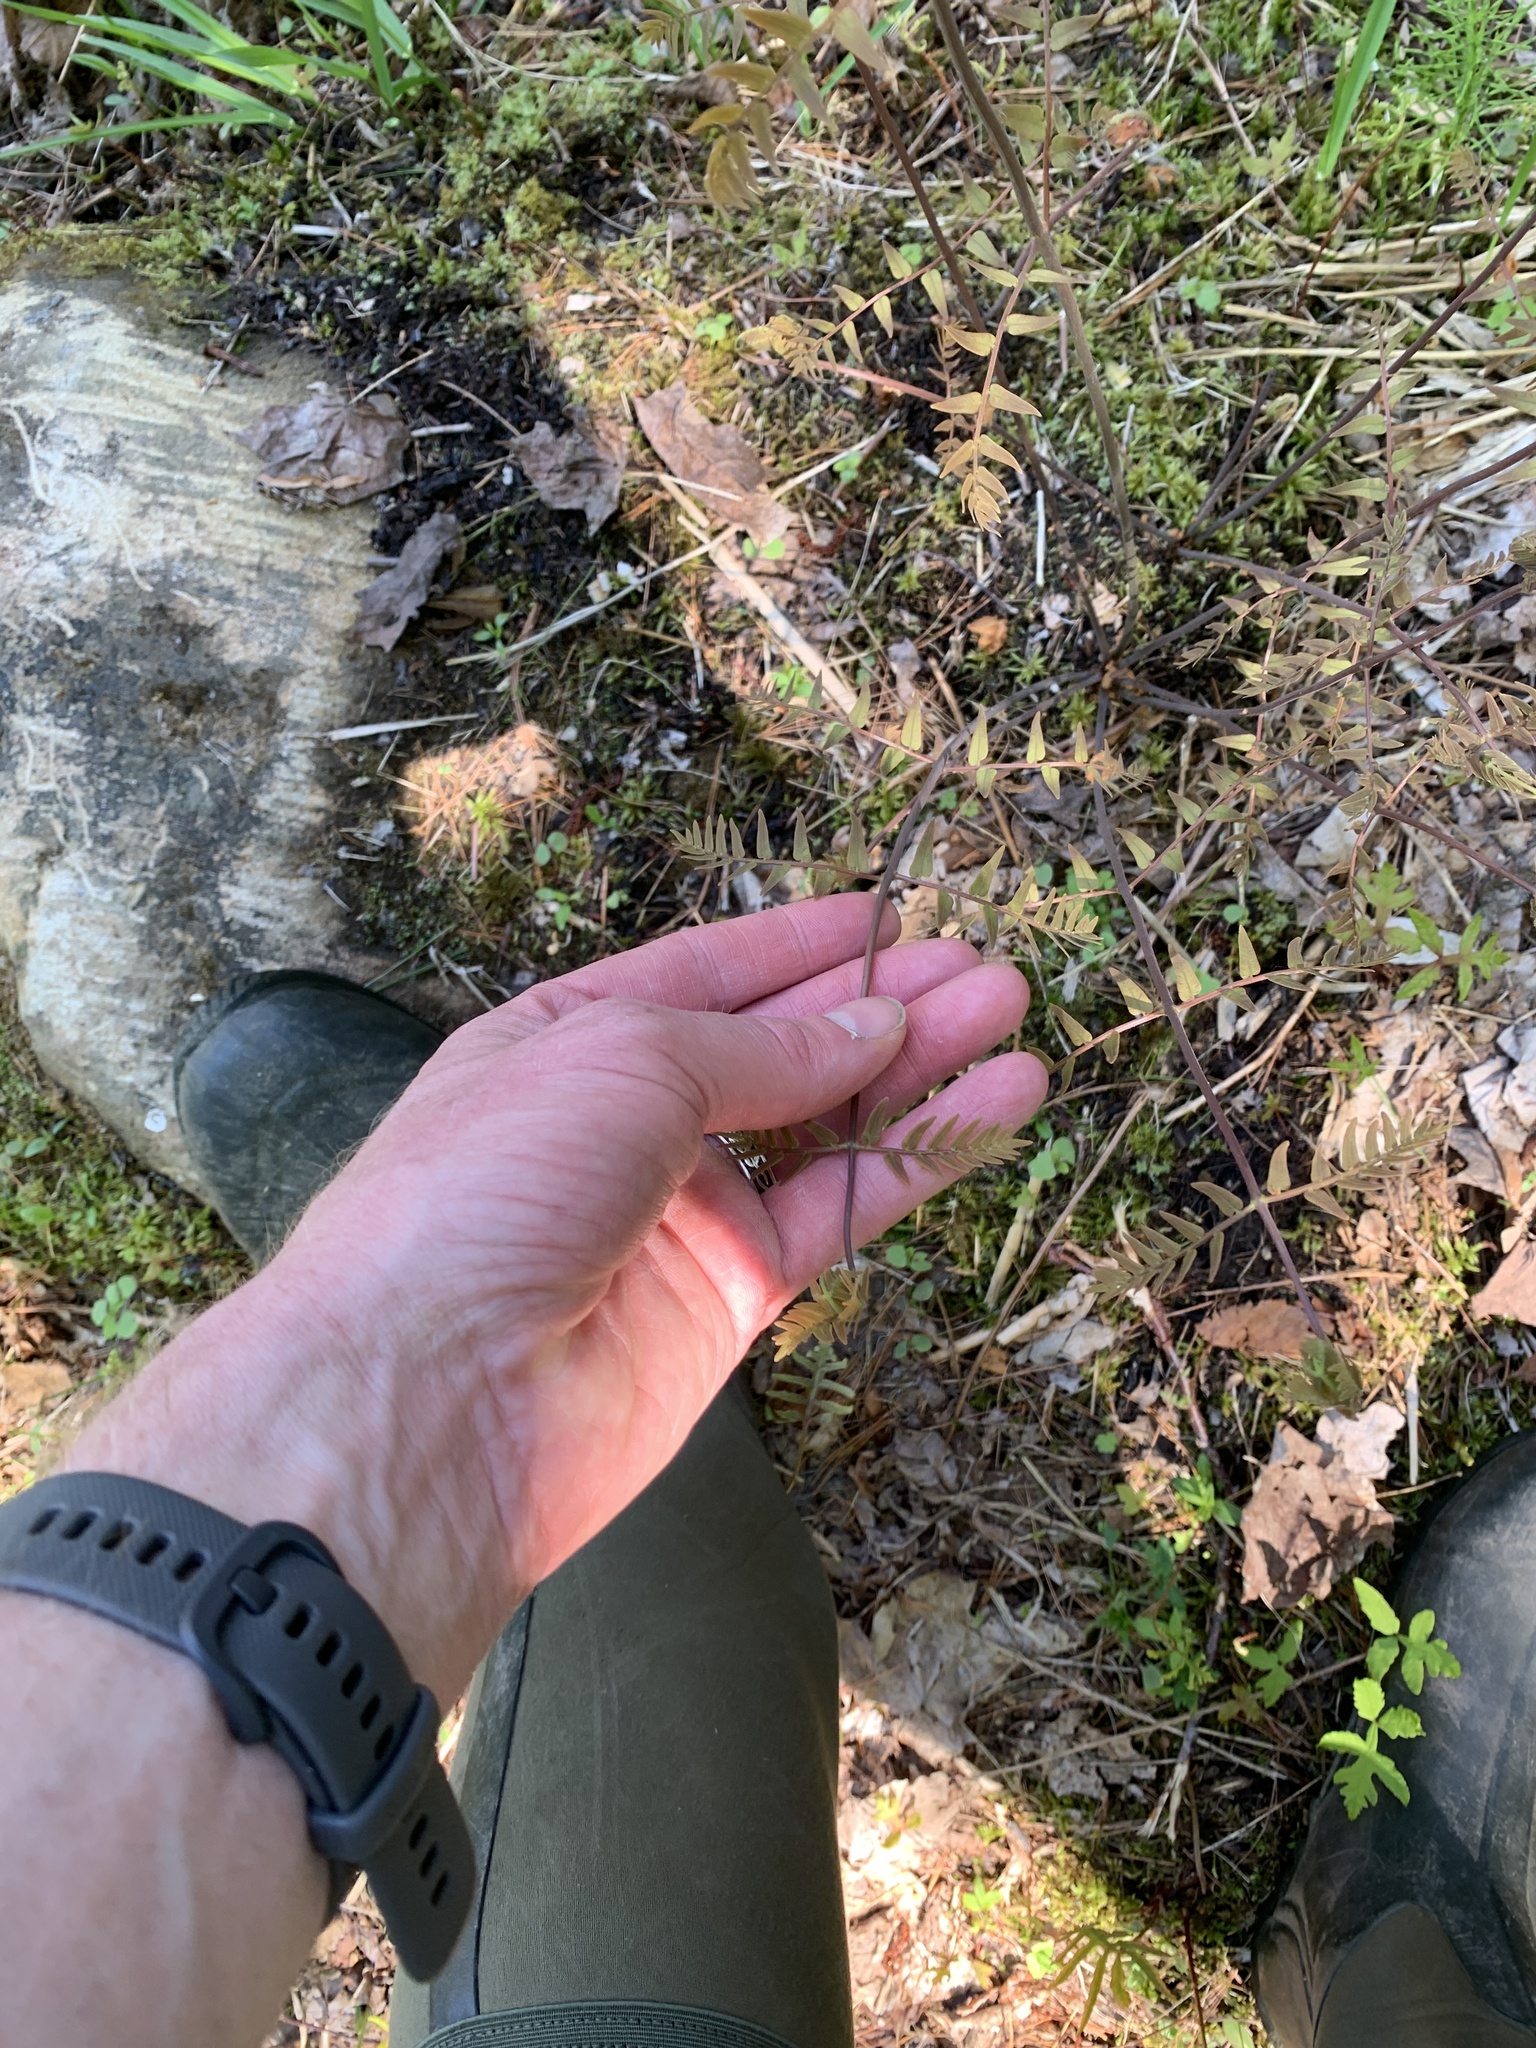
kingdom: Plantae
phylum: Tracheophyta
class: Polypodiopsida
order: Osmundales
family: Osmundaceae
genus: Osmunda
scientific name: Osmunda spectabilis
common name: American royal fern
